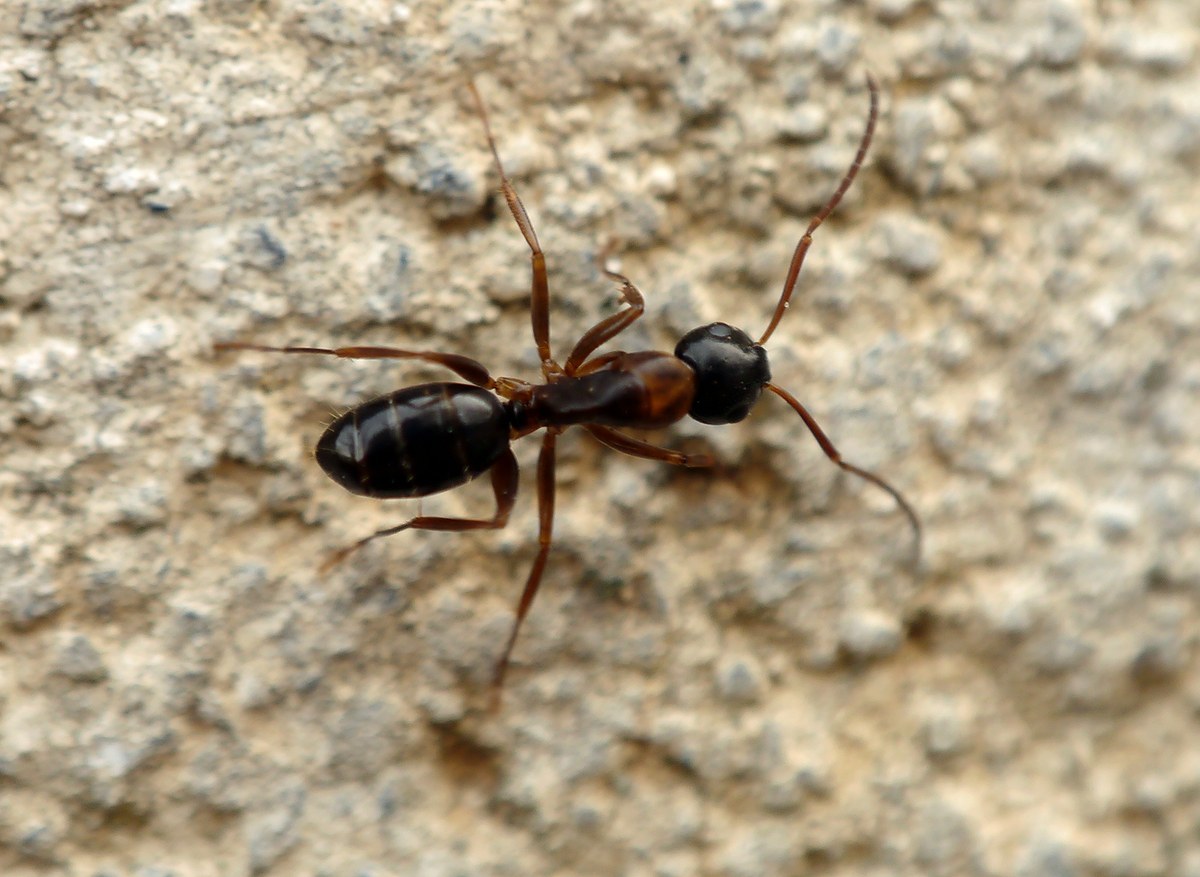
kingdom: Animalia
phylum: Arthropoda
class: Insecta
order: Hymenoptera
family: Formicidae
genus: Camponotus
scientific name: Camponotus fallax
